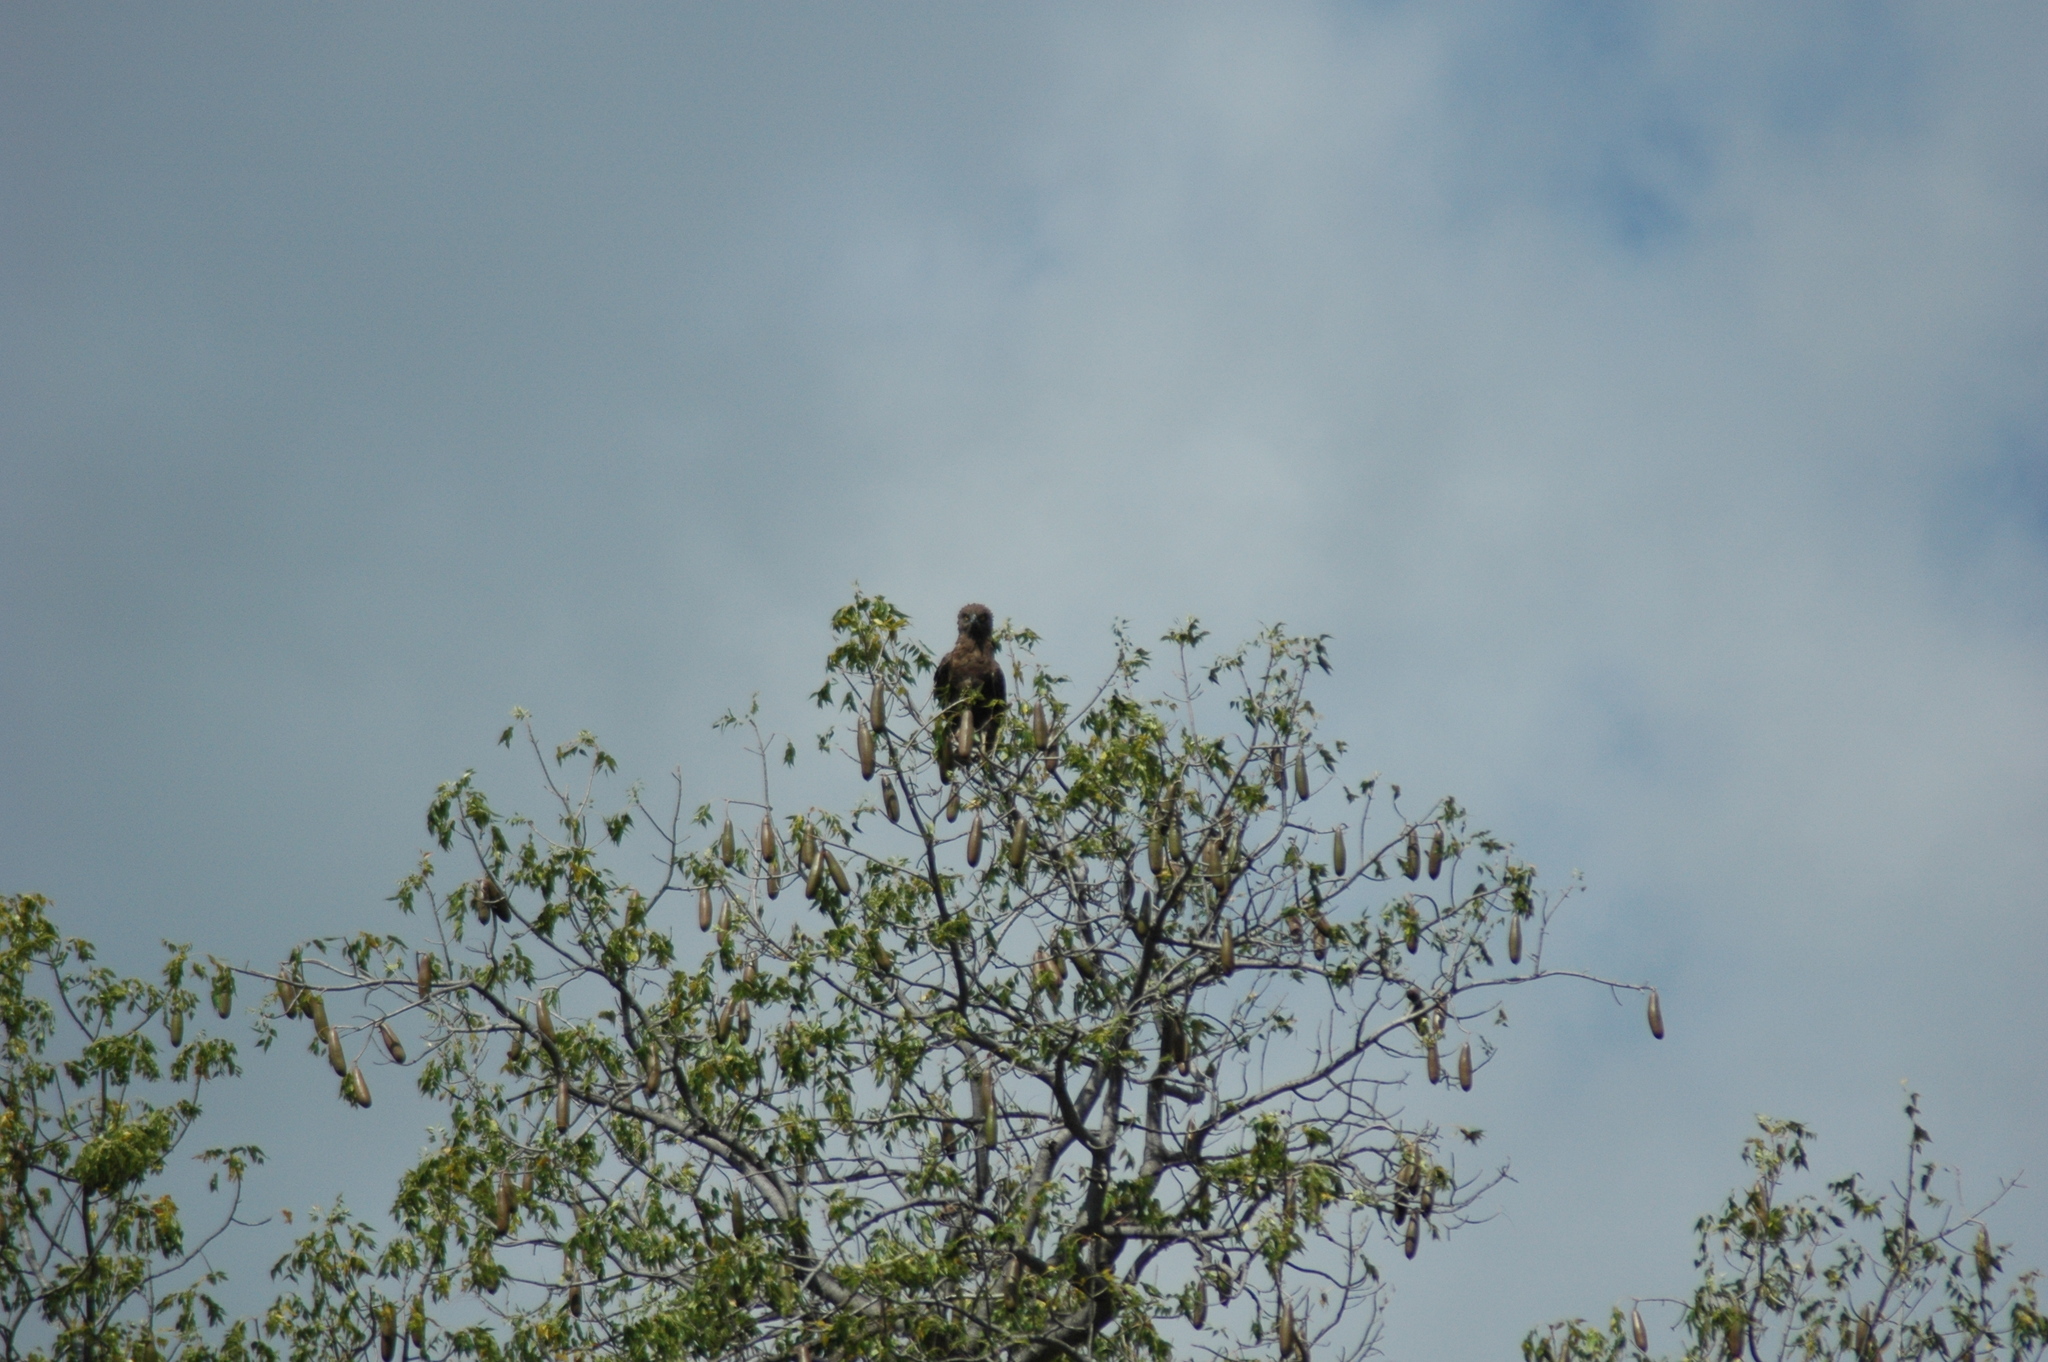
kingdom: Animalia
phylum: Chordata
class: Aves
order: Accipitriformes
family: Accipitridae
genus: Circaetus
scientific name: Circaetus cinereus
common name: Brown snake eagle
